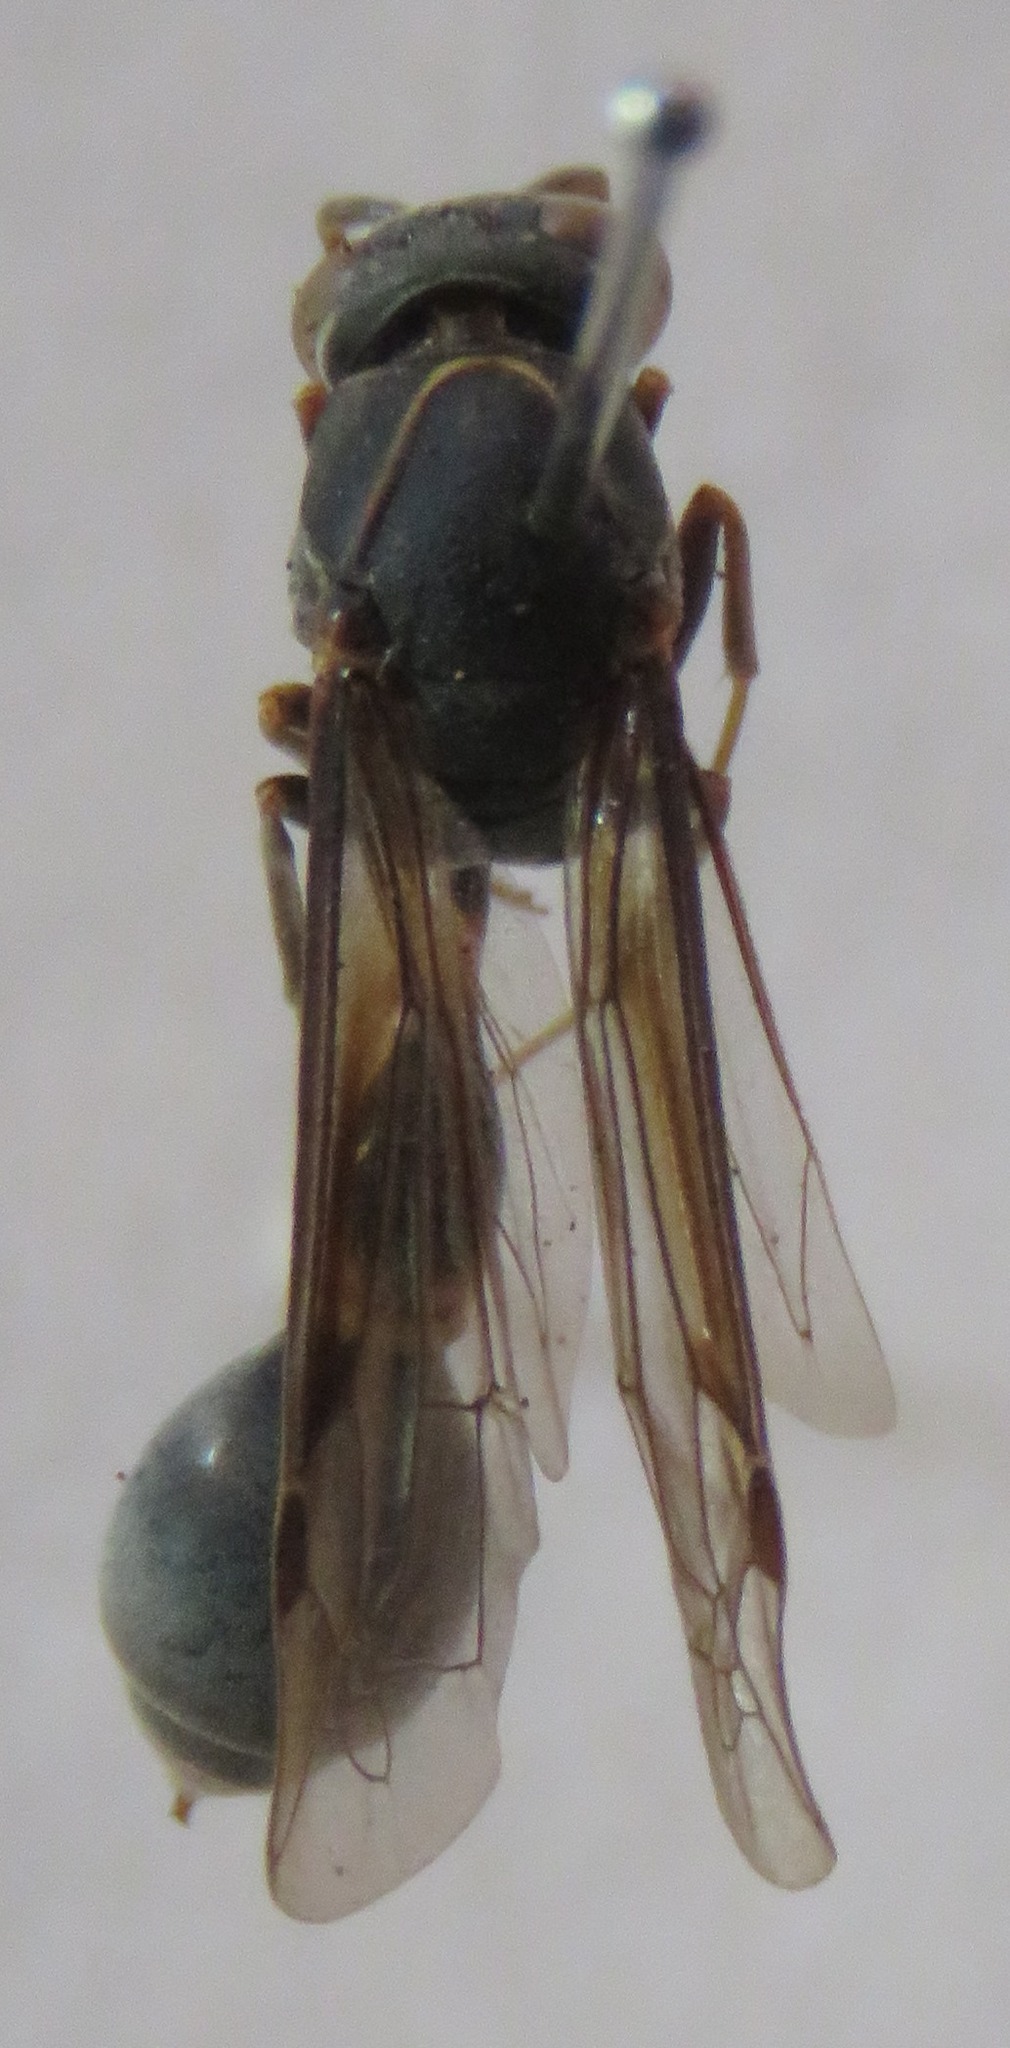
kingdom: Animalia
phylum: Arthropoda
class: Insecta
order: Hymenoptera
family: Eumenidae
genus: Pachymenes
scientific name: Pachymenes laeviventris
